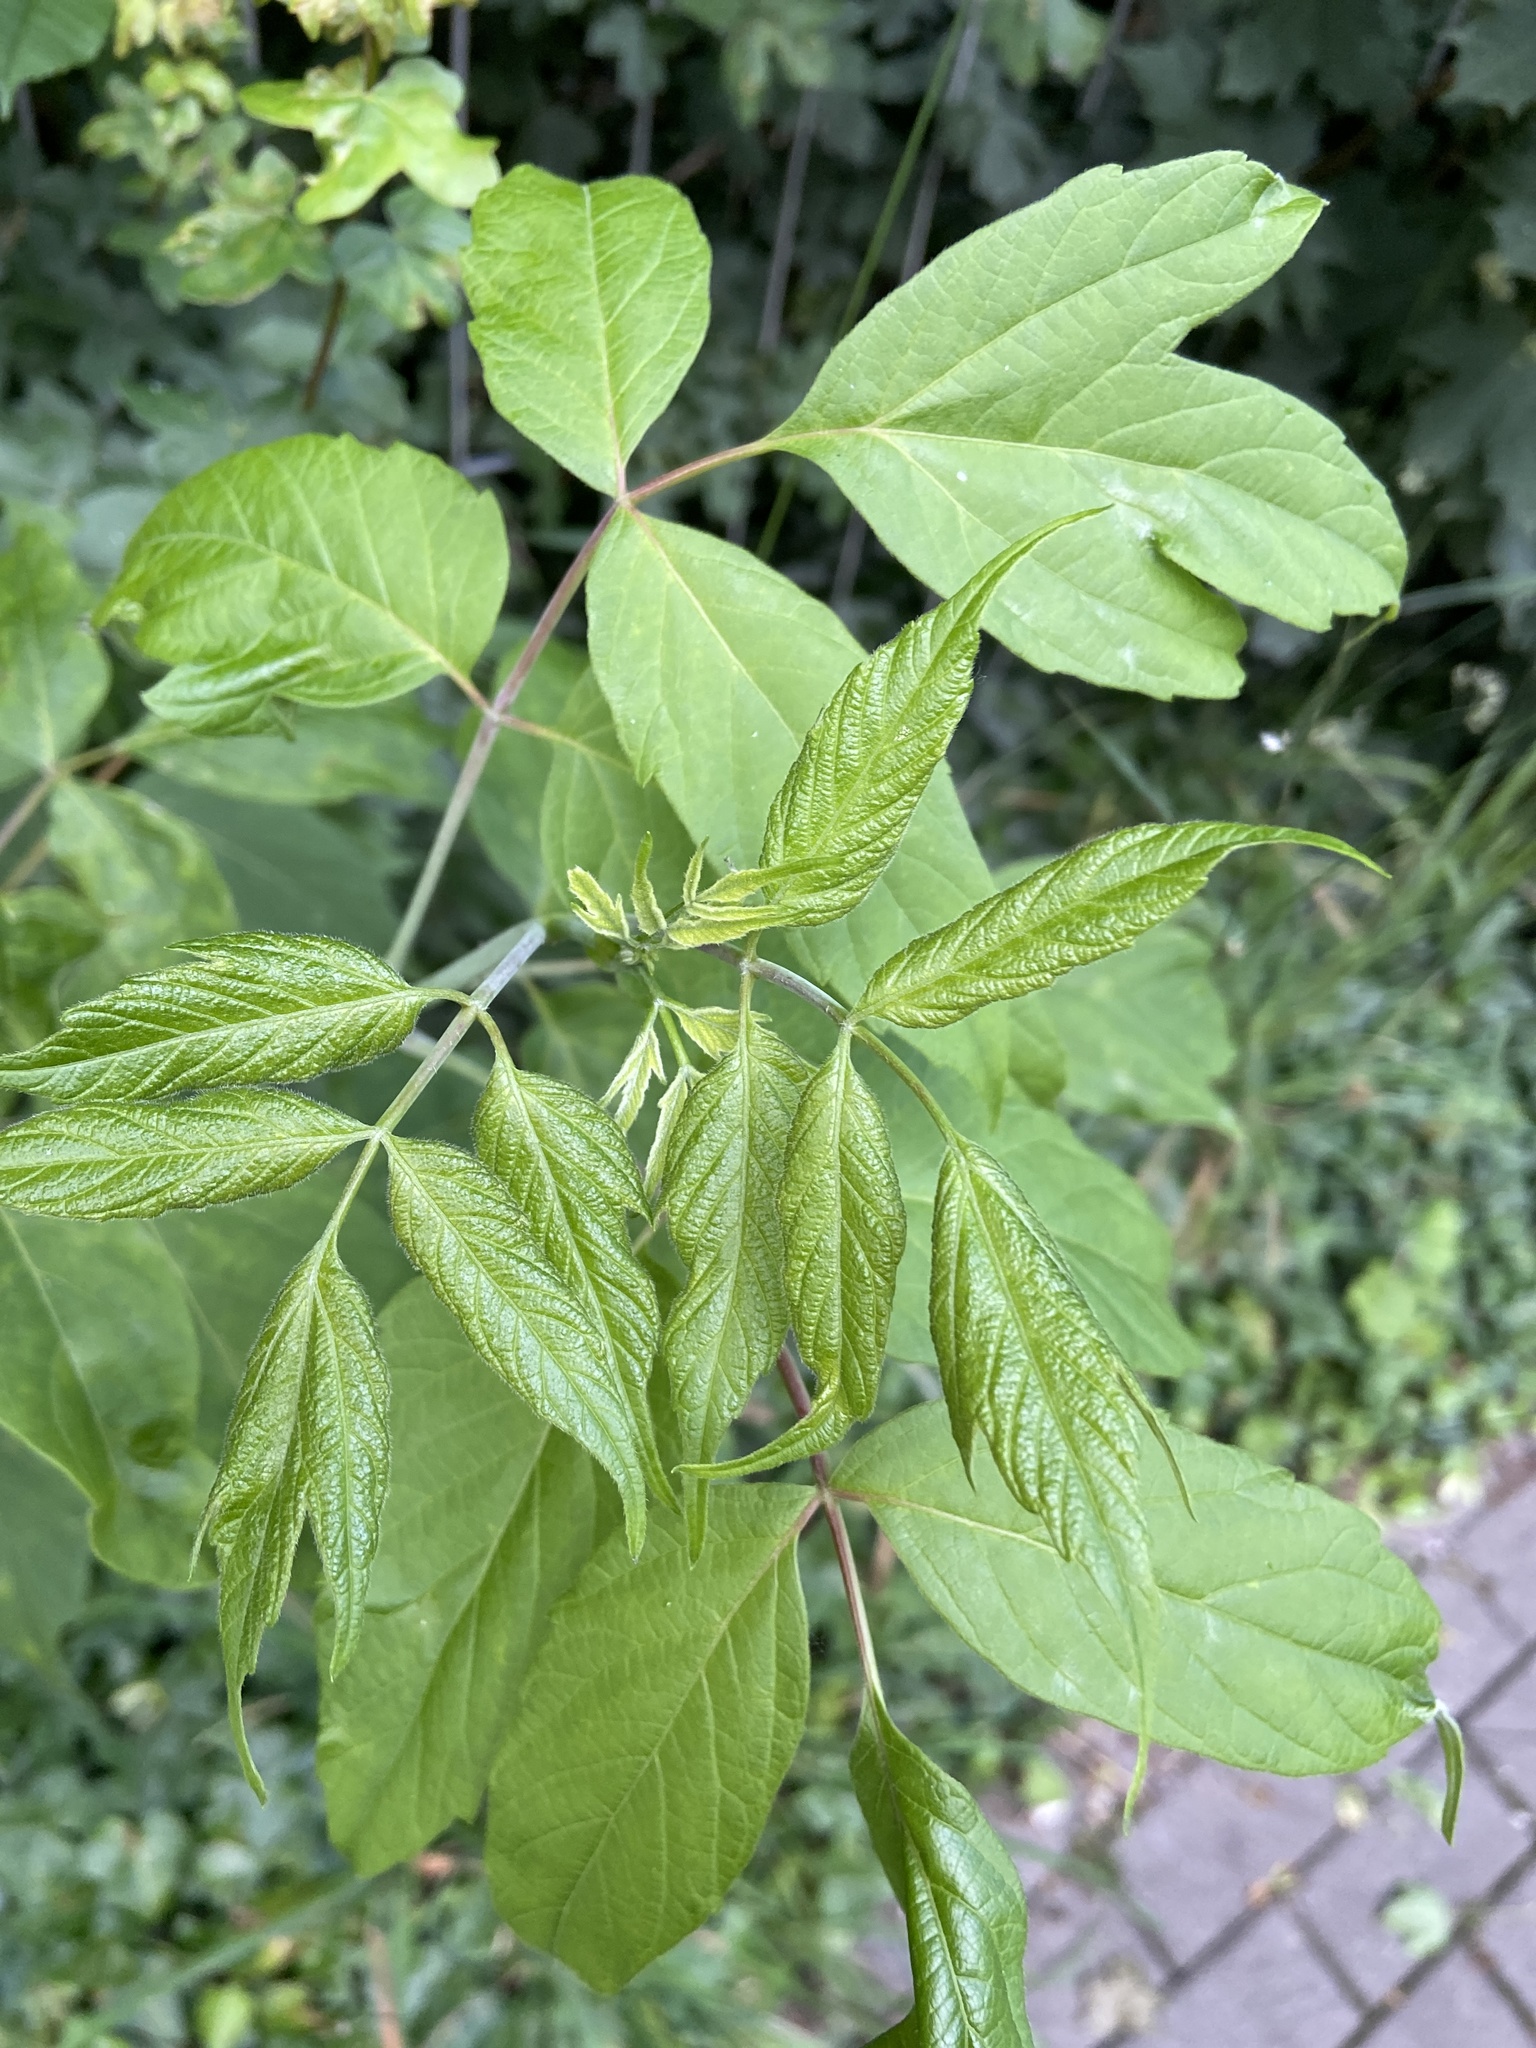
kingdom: Plantae
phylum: Tracheophyta
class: Magnoliopsida
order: Sapindales
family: Sapindaceae
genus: Acer
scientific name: Acer negundo
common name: Ashleaf maple
